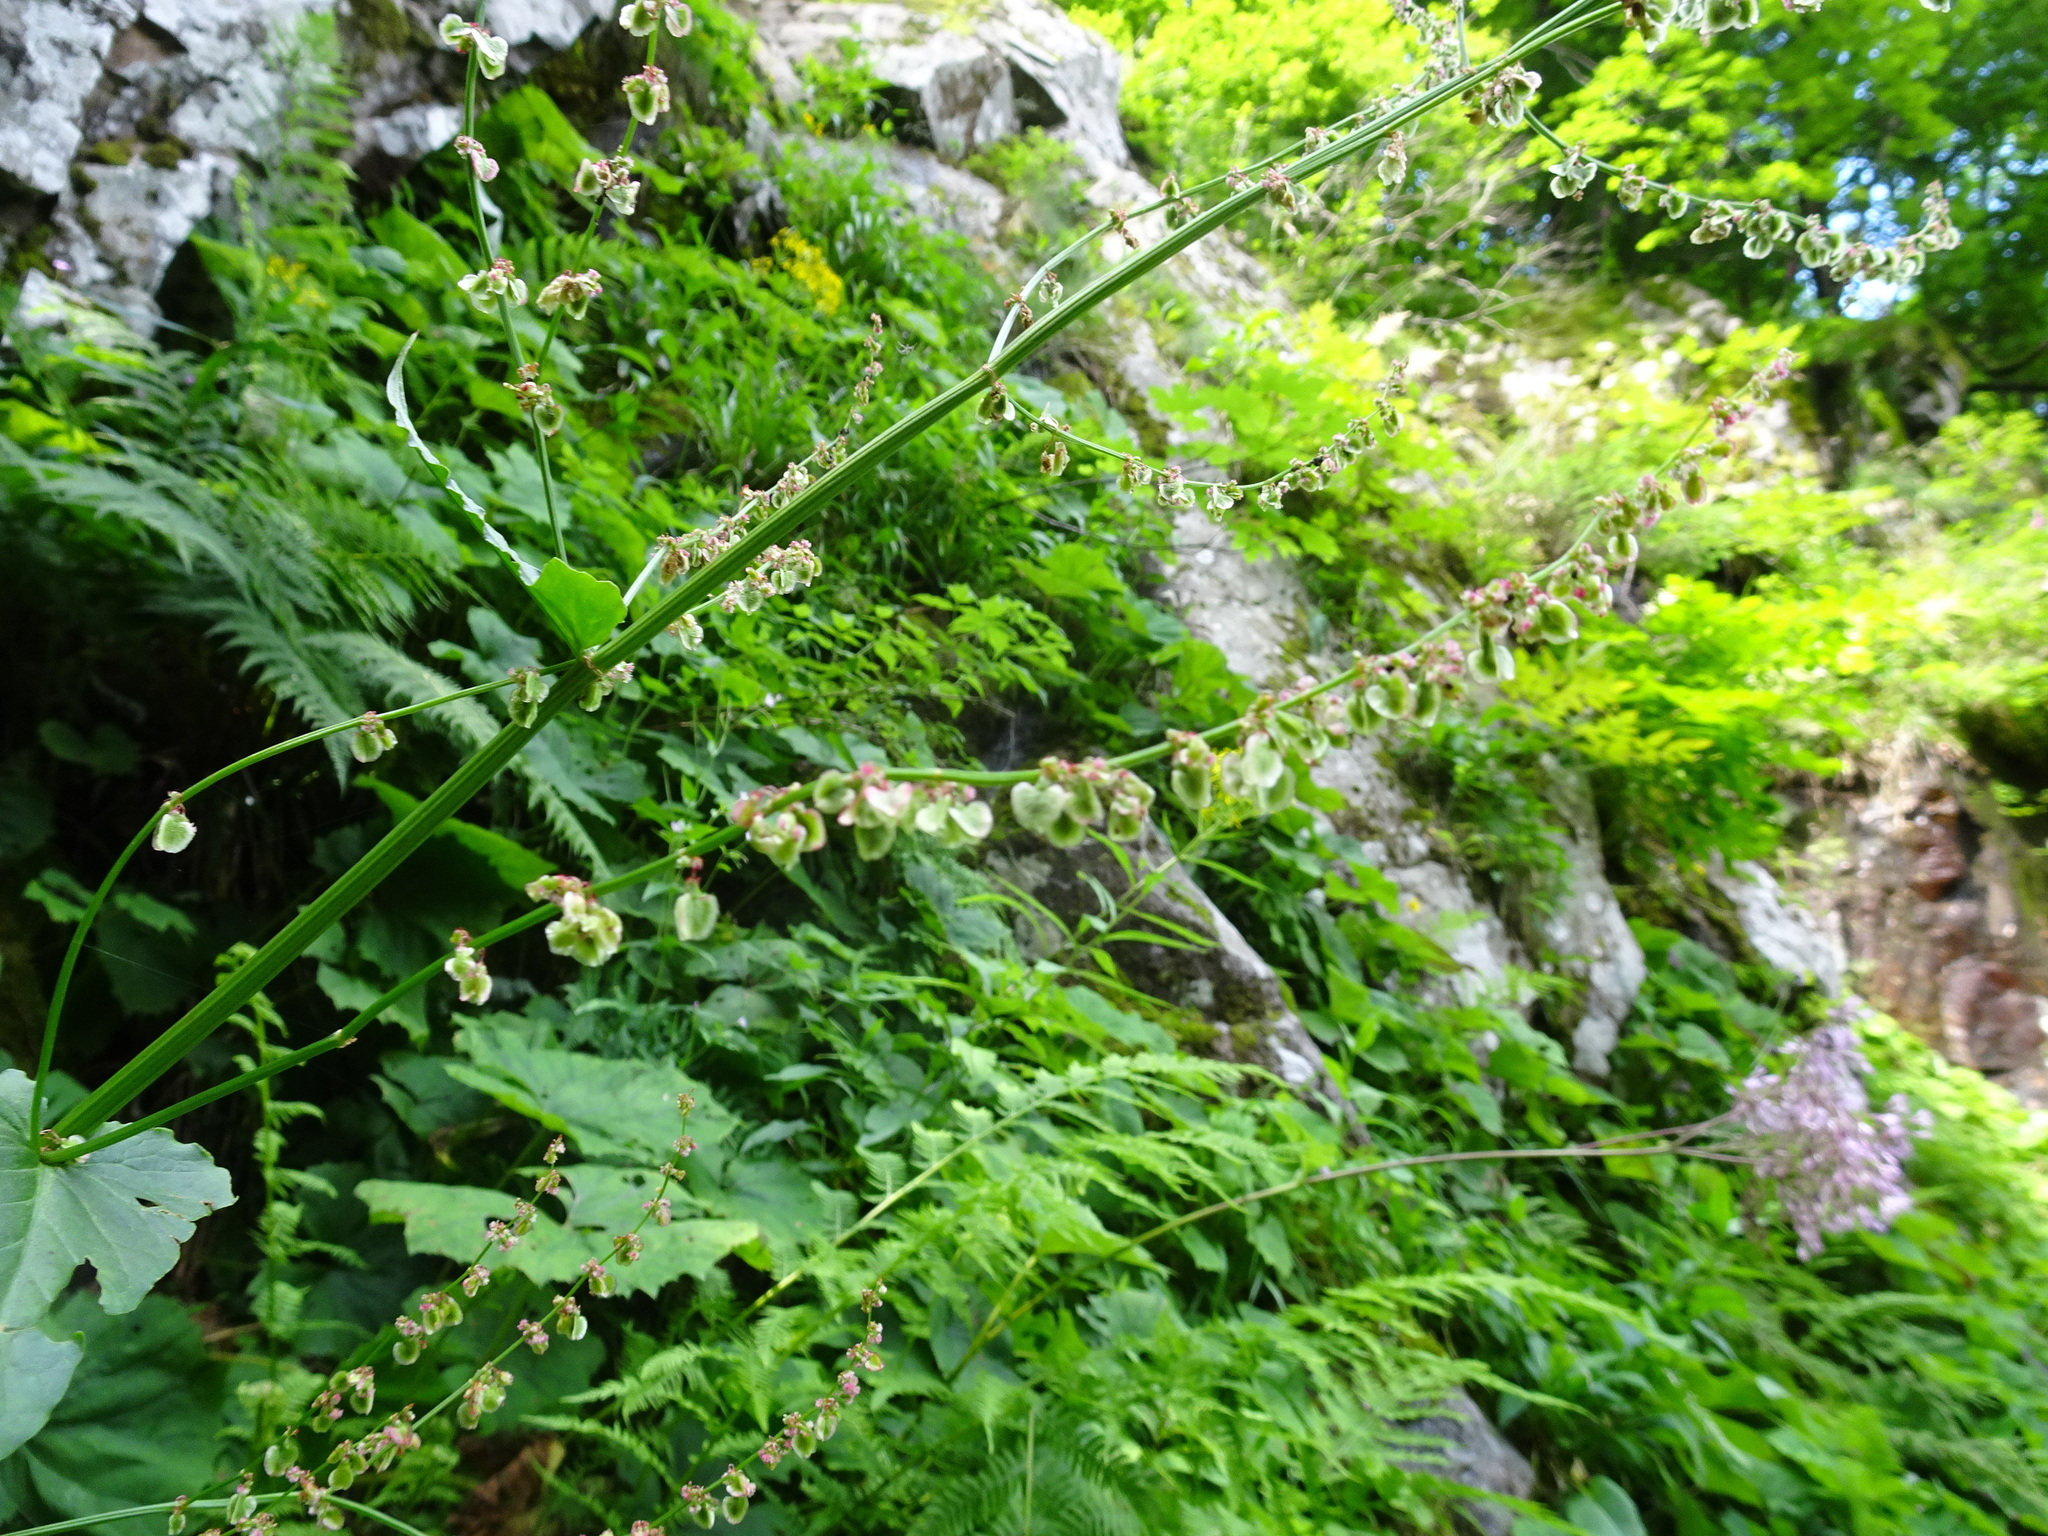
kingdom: Plantae
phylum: Tracheophyta
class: Magnoliopsida
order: Caryophyllales
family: Polygonaceae
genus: Rumex
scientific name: Rumex arifolius
